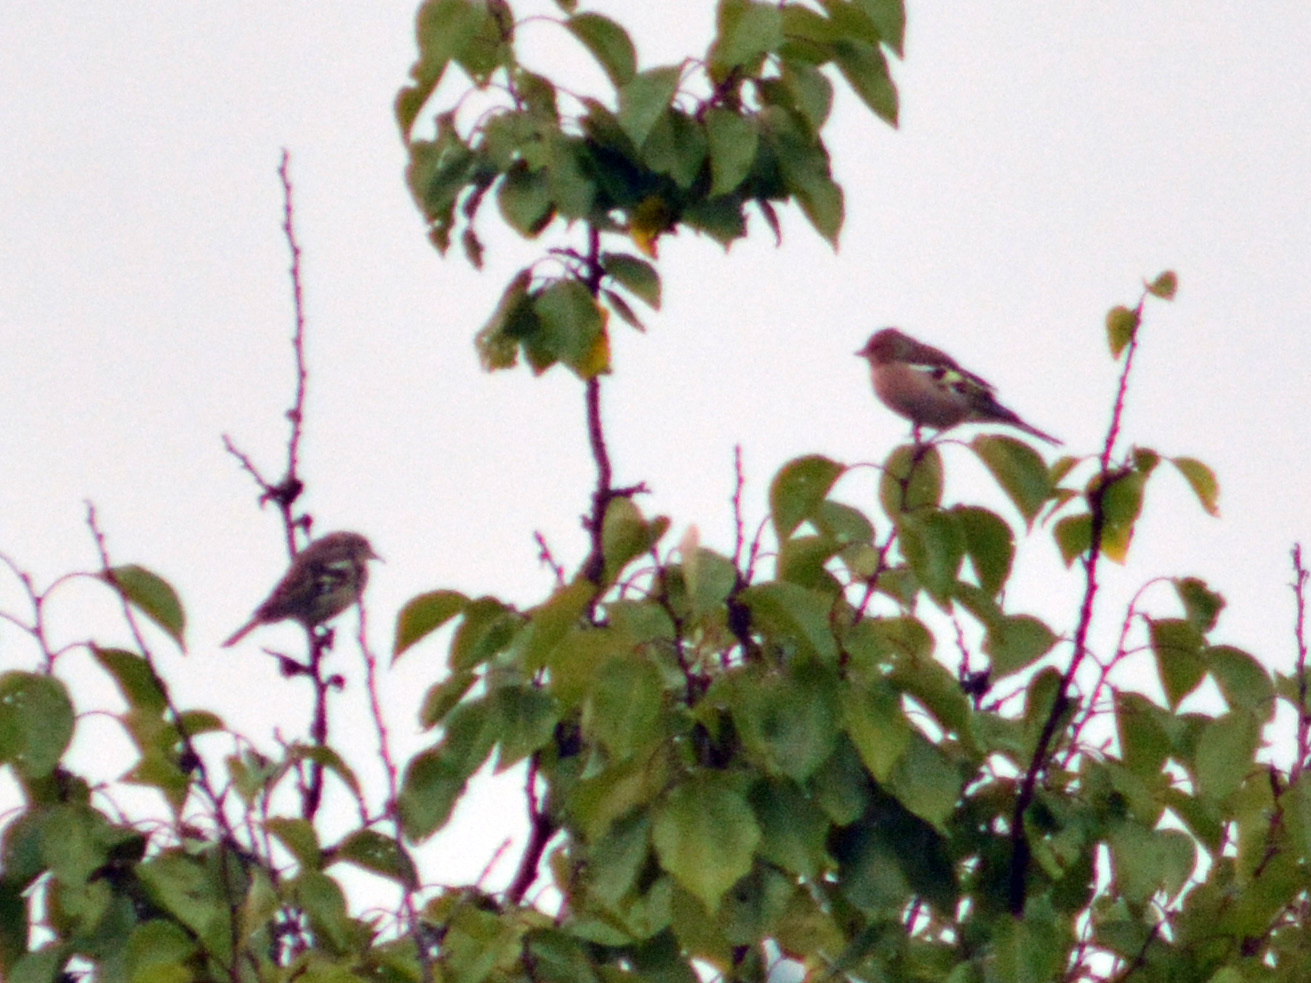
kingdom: Animalia
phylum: Chordata
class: Aves
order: Passeriformes
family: Fringillidae
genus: Fringilla
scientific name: Fringilla coelebs
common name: Common chaffinch
